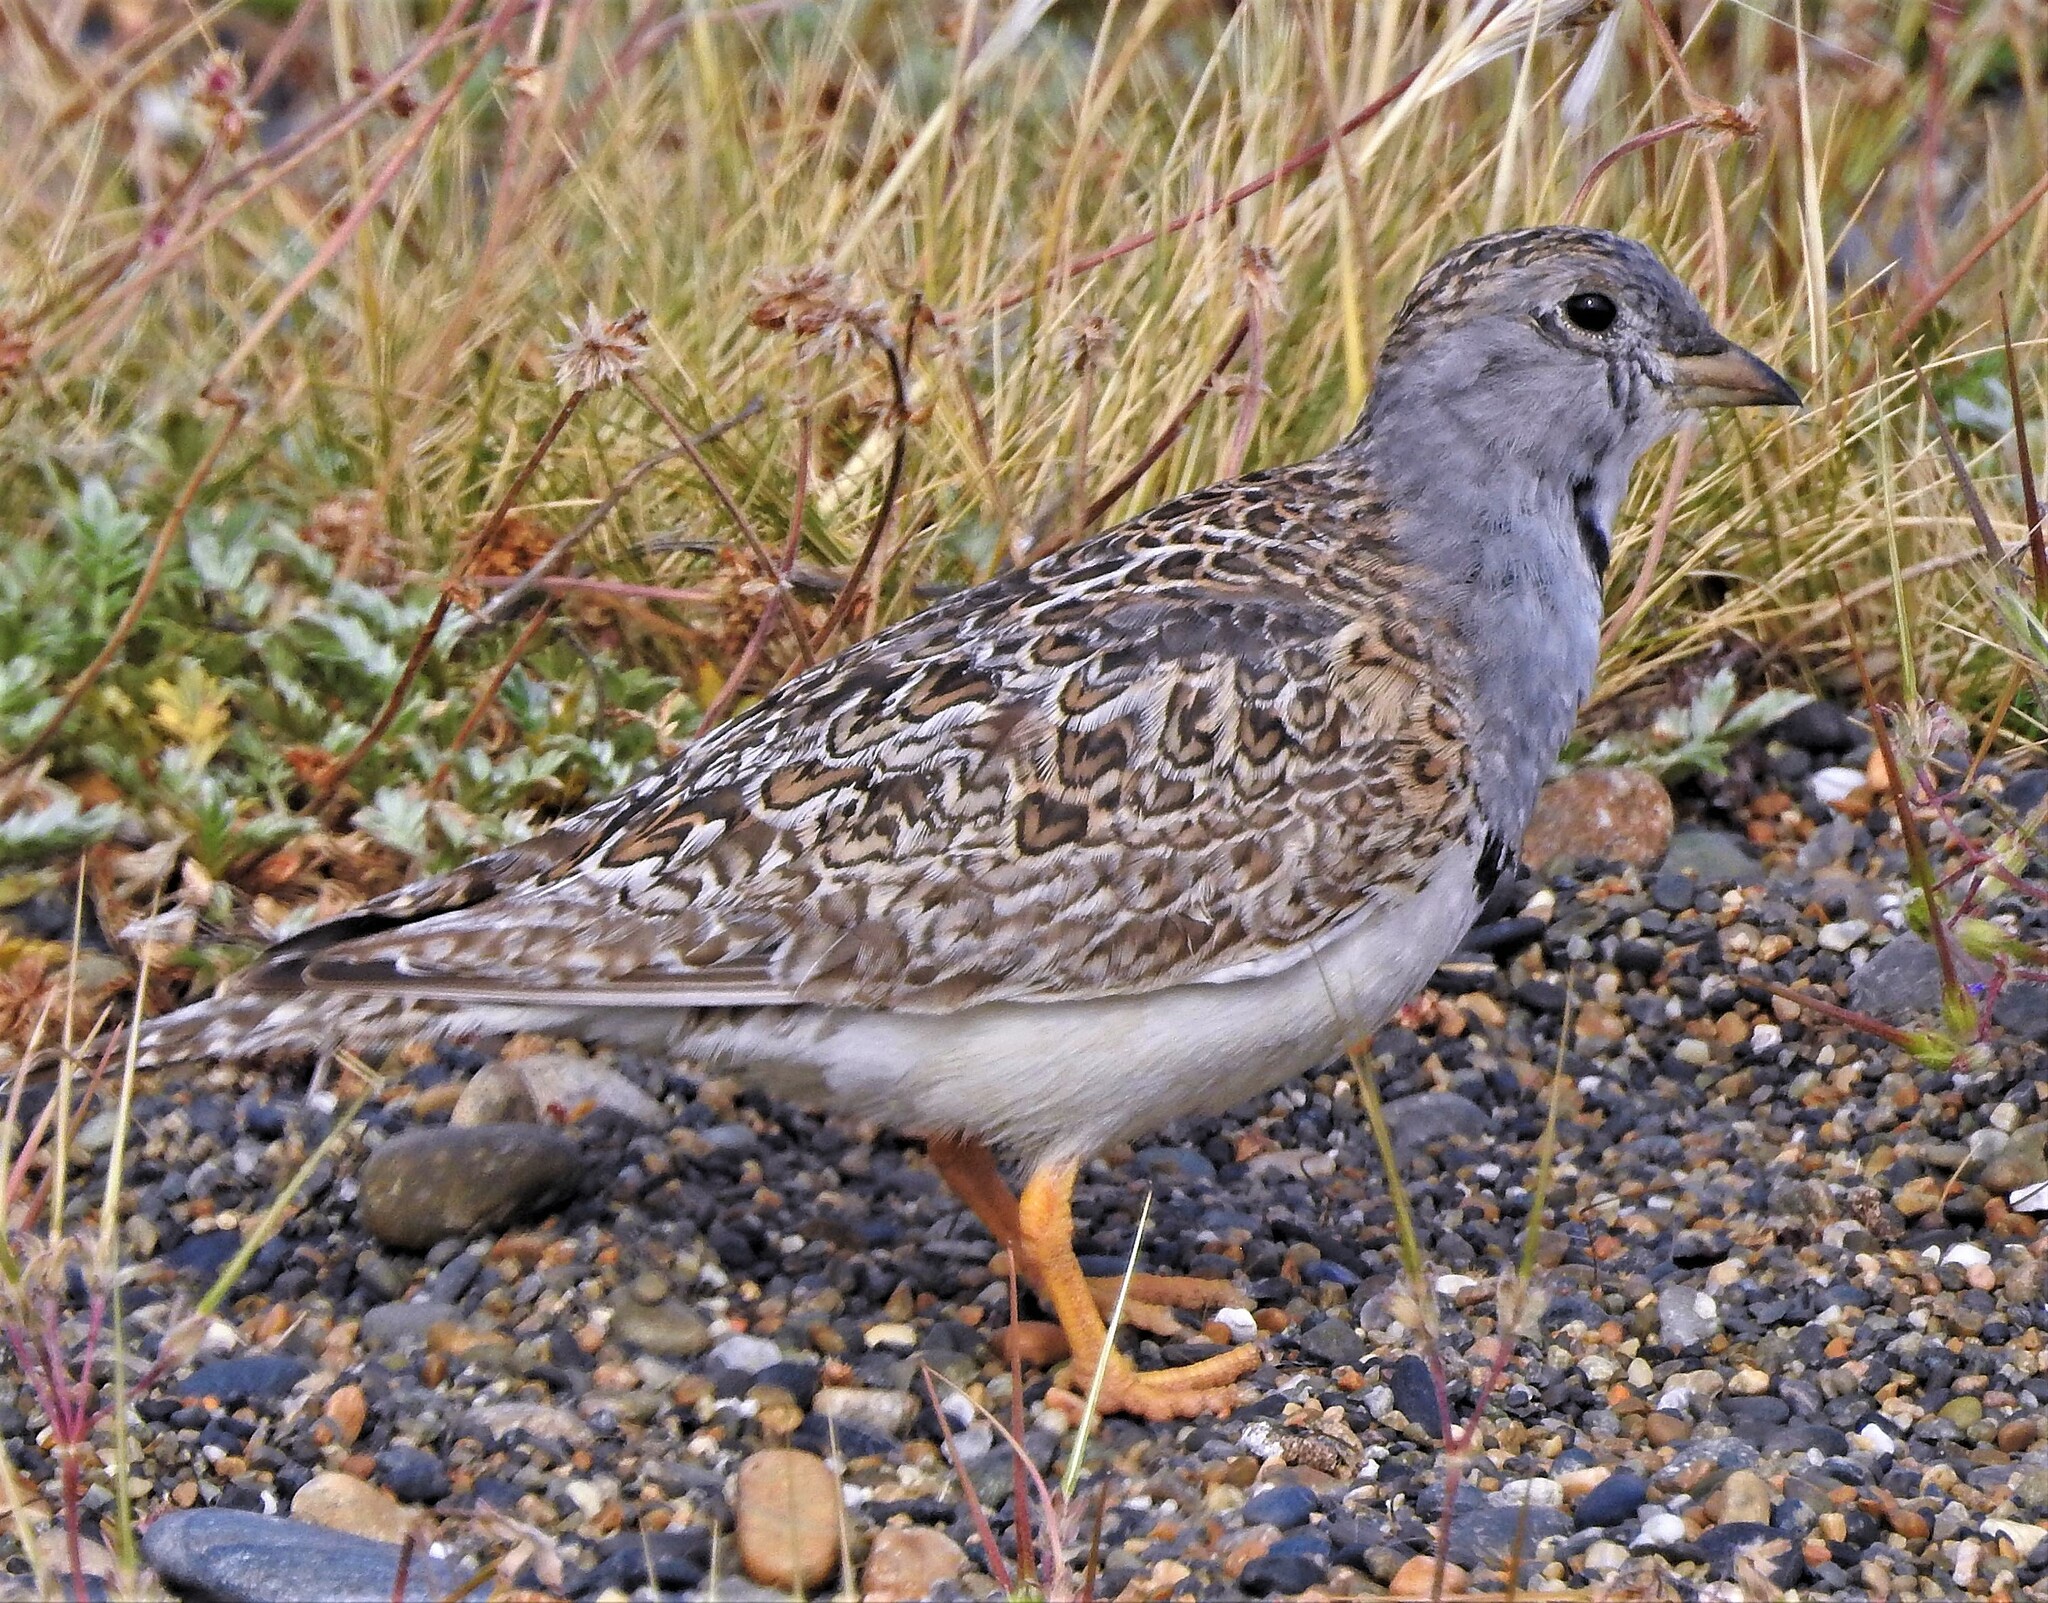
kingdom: Animalia
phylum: Chordata
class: Aves
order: Charadriiformes
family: Thinocoridae
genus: Thinocorus
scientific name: Thinocorus rumicivorus
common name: Least seedsnipe
